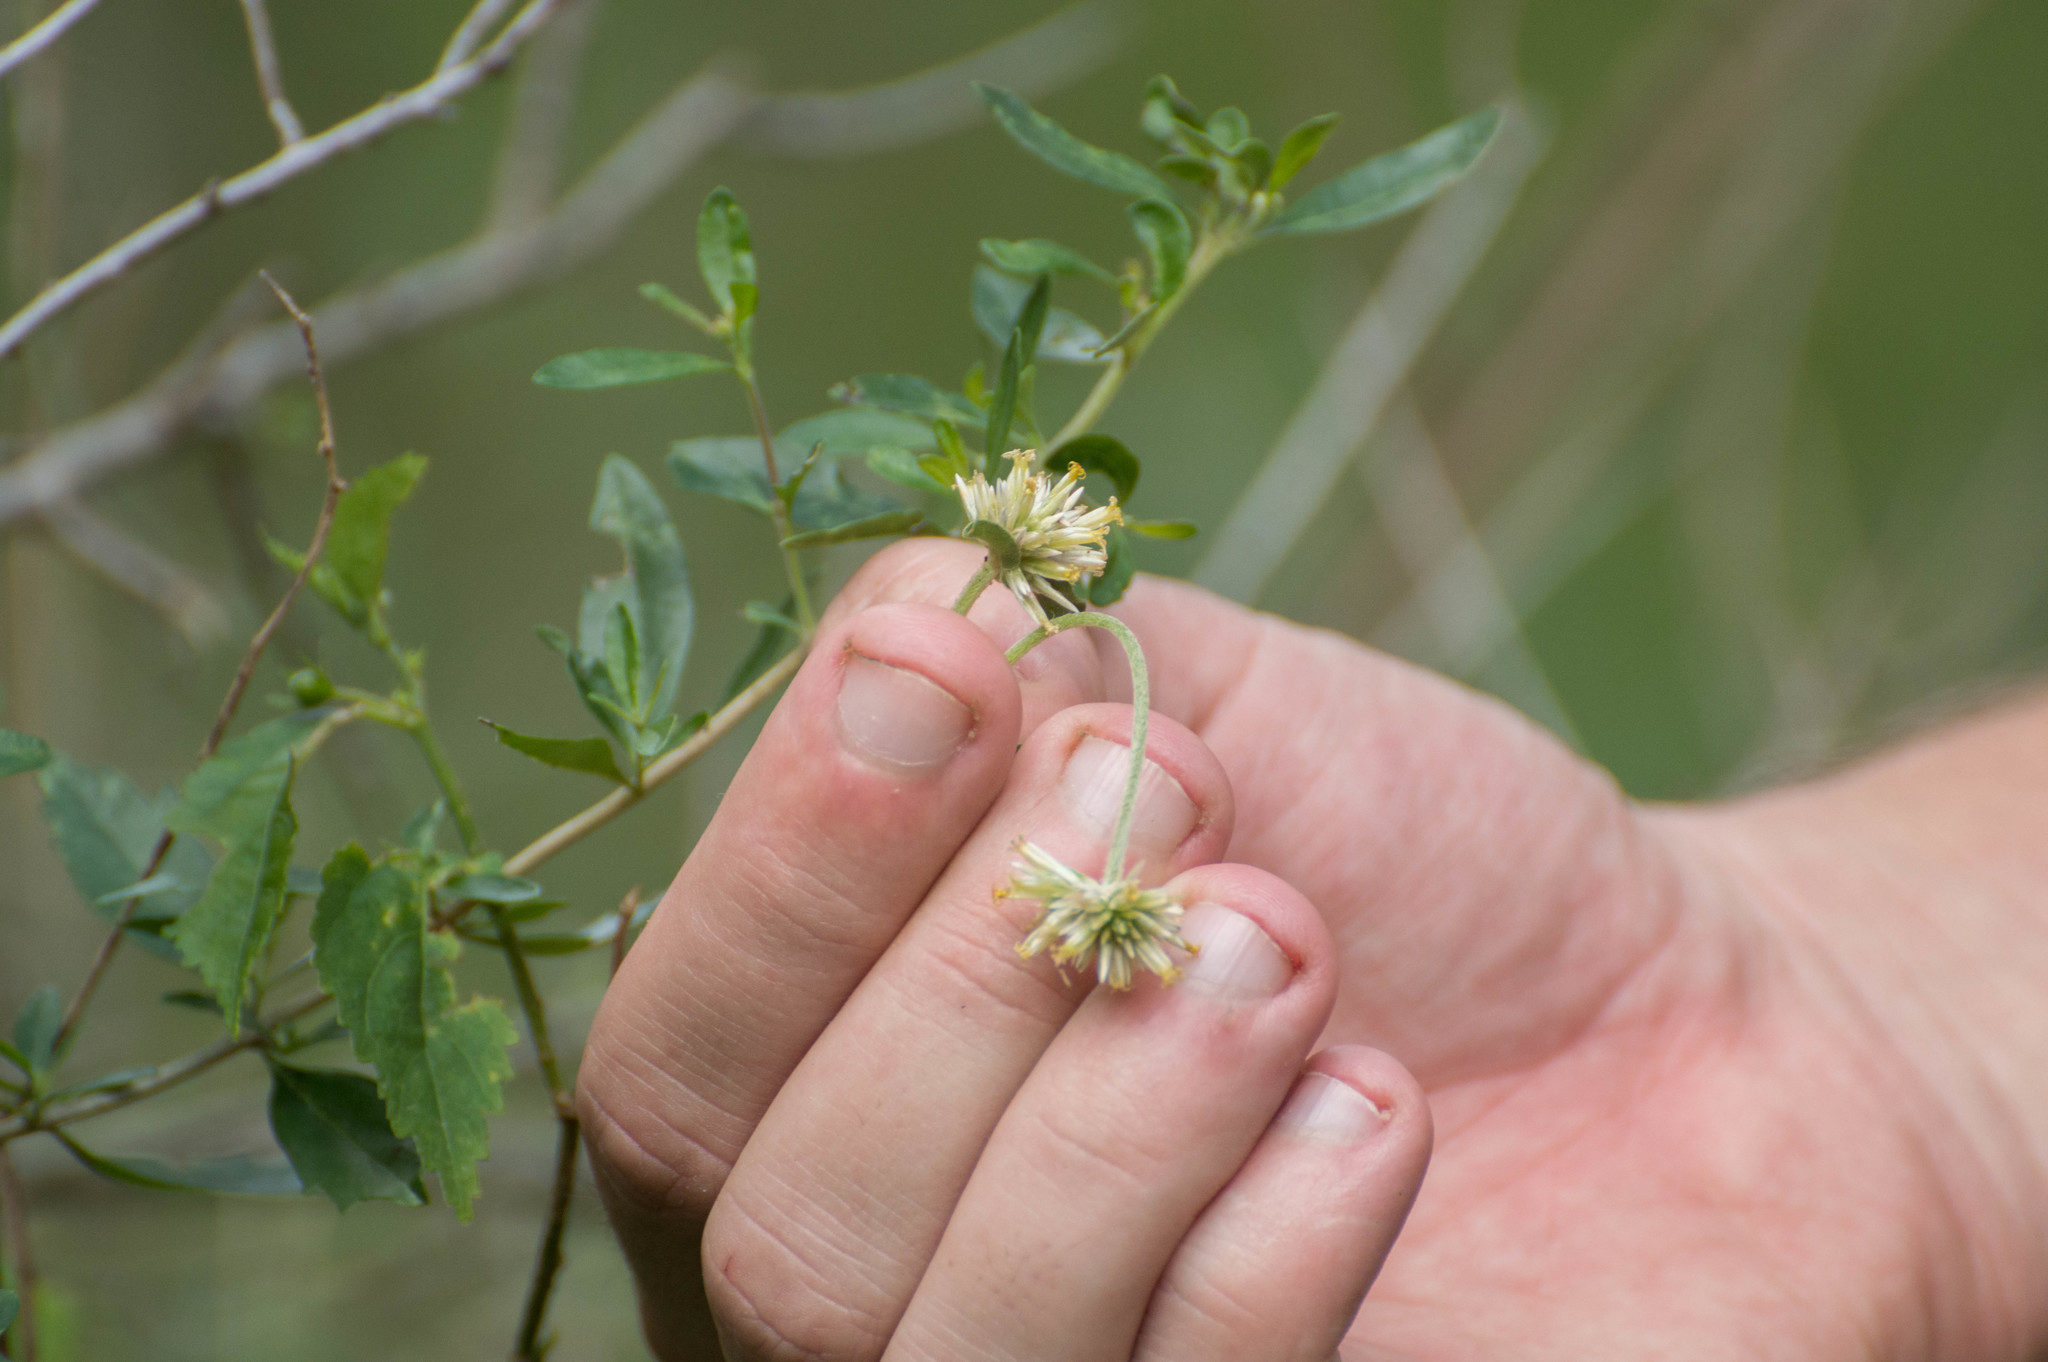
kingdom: Plantae
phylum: Tracheophyta
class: Magnoliopsida
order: Caryophyllales
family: Amaranthaceae
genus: Gomphrena
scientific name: Gomphrena perennis
